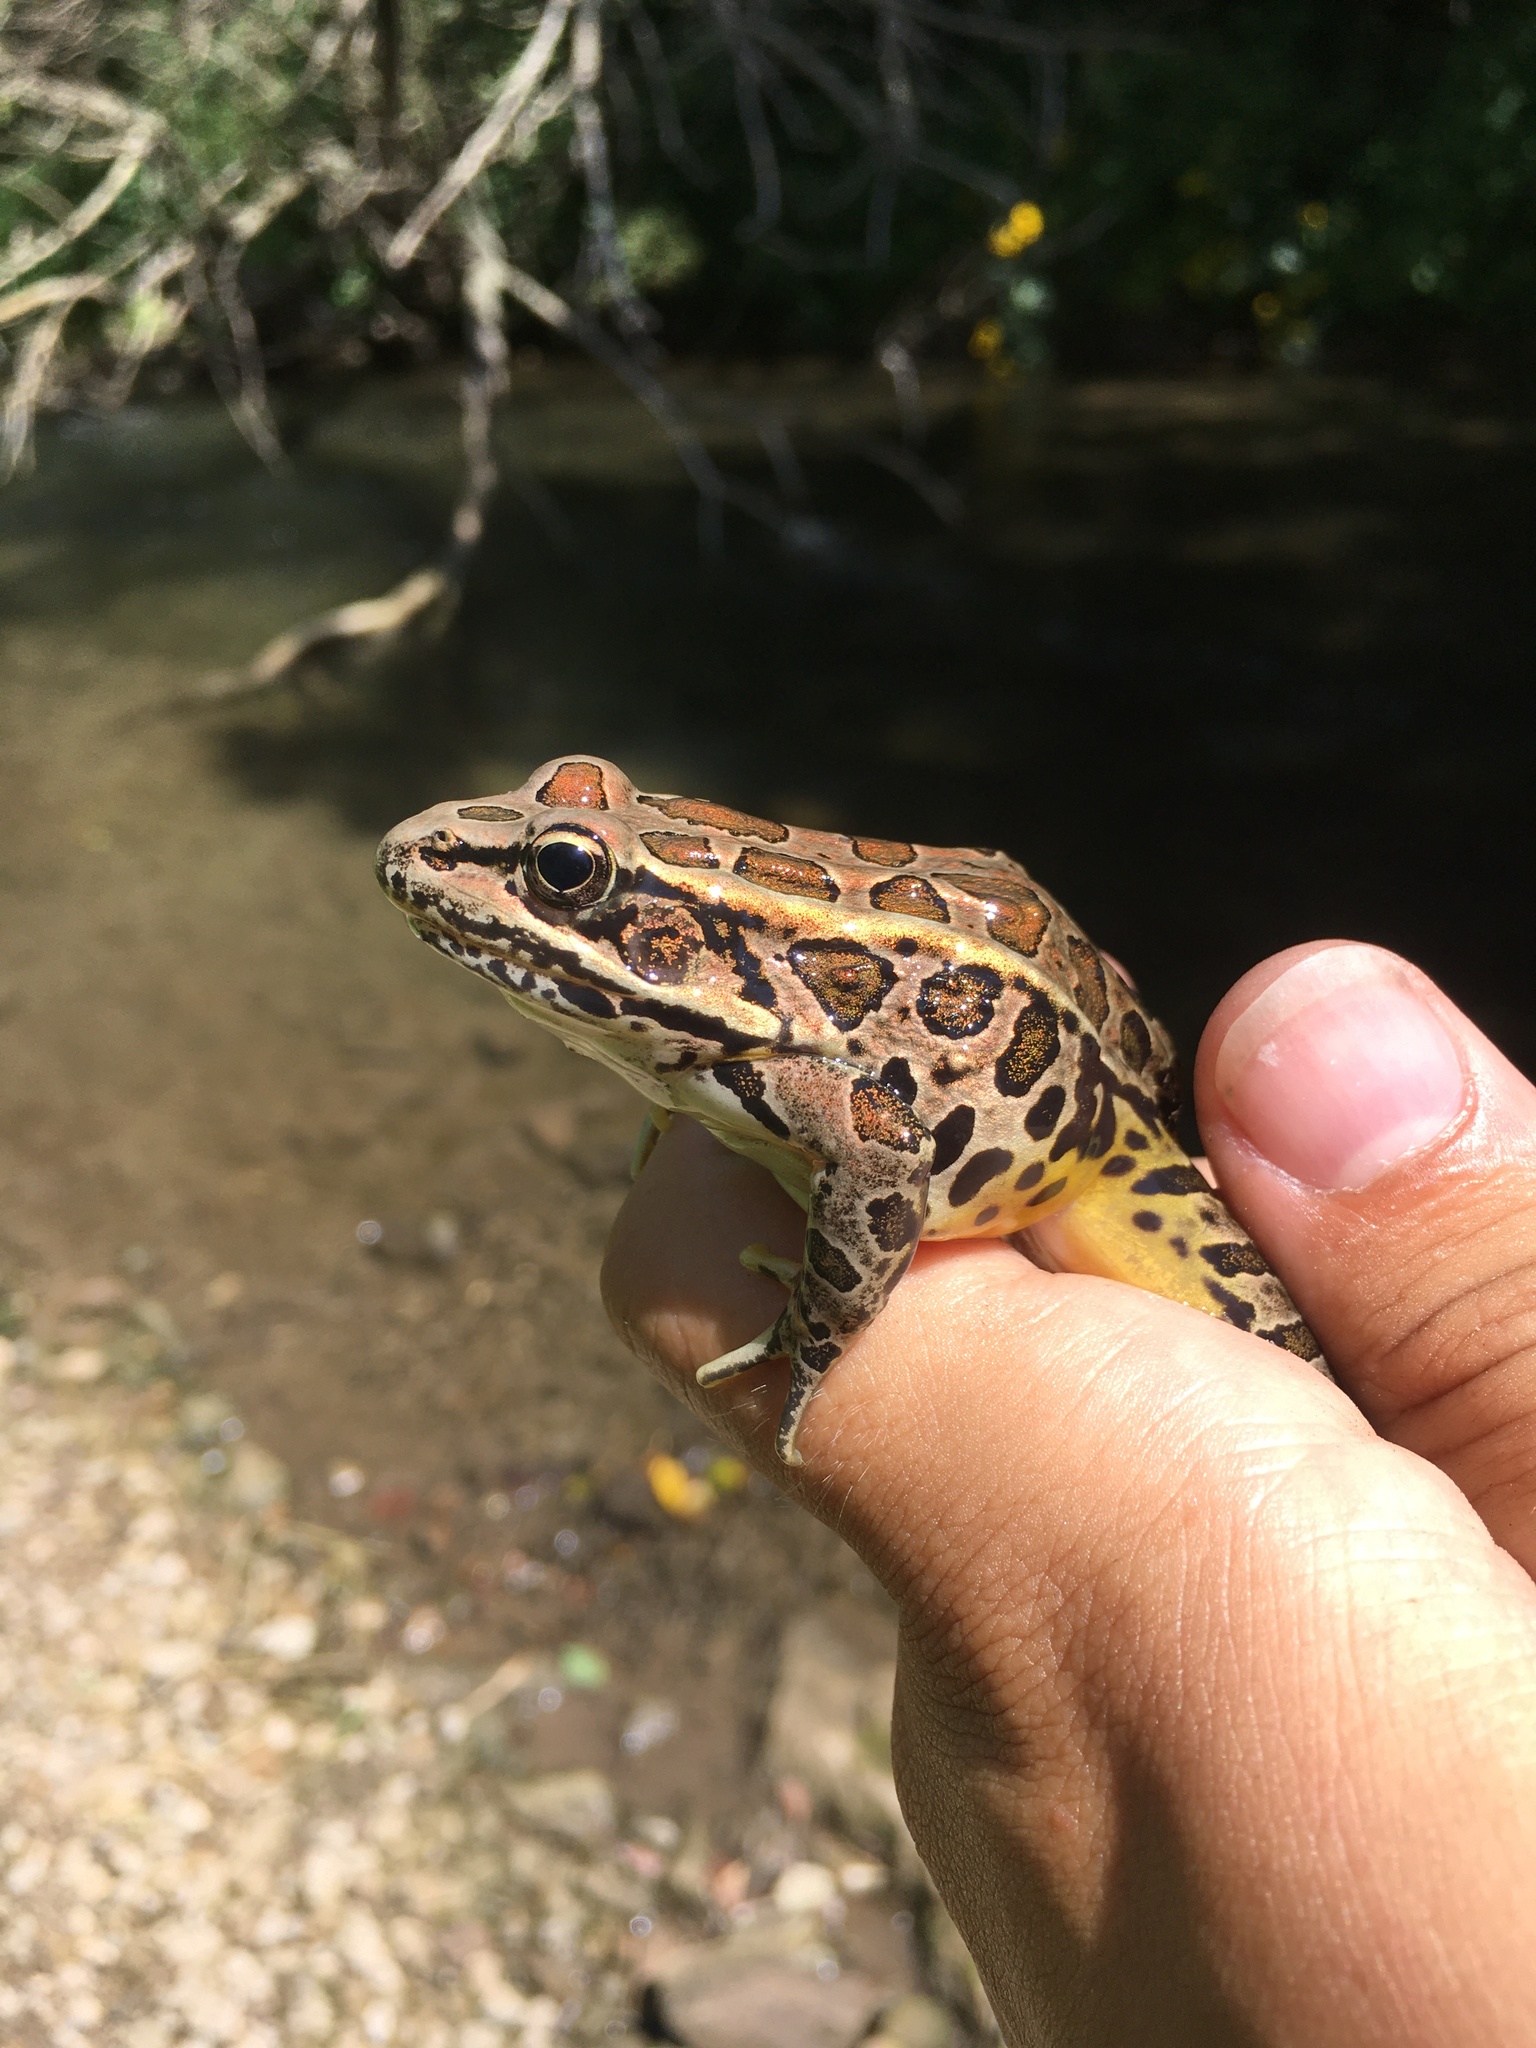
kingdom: Animalia
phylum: Chordata
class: Amphibia
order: Anura
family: Ranidae
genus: Lithobates
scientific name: Lithobates palustris
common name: Pickerel frog
